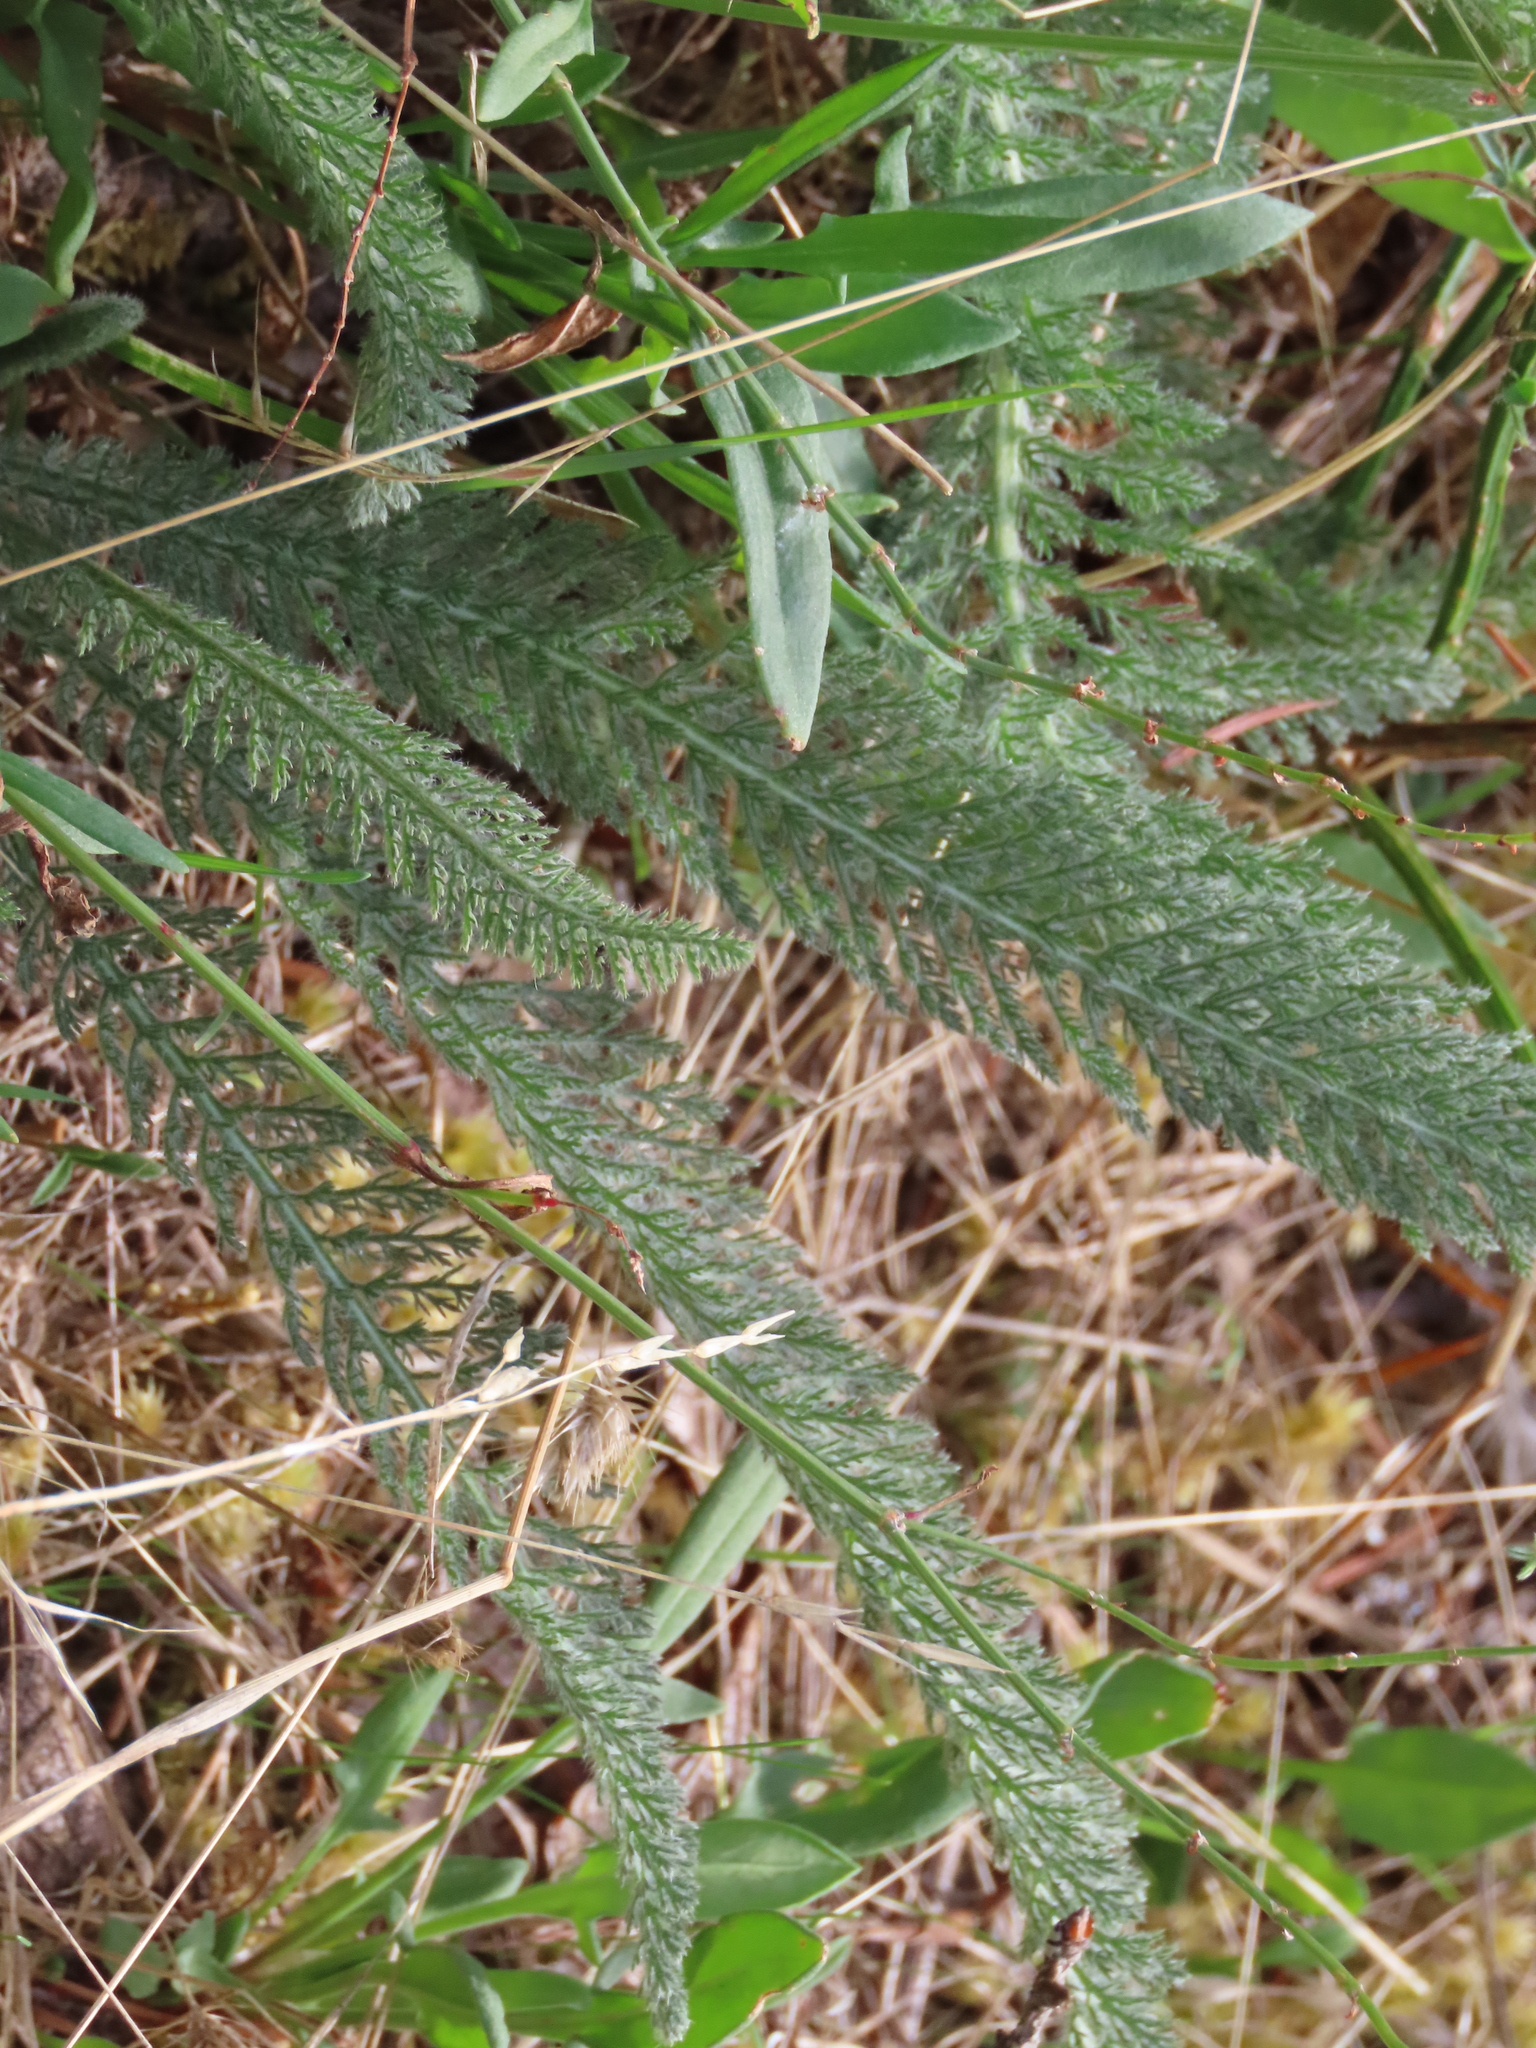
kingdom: Plantae
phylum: Tracheophyta
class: Magnoliopsida
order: Asterales
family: Asteraceae
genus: Achillea
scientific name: Achillea millefolium
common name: Yarrow
